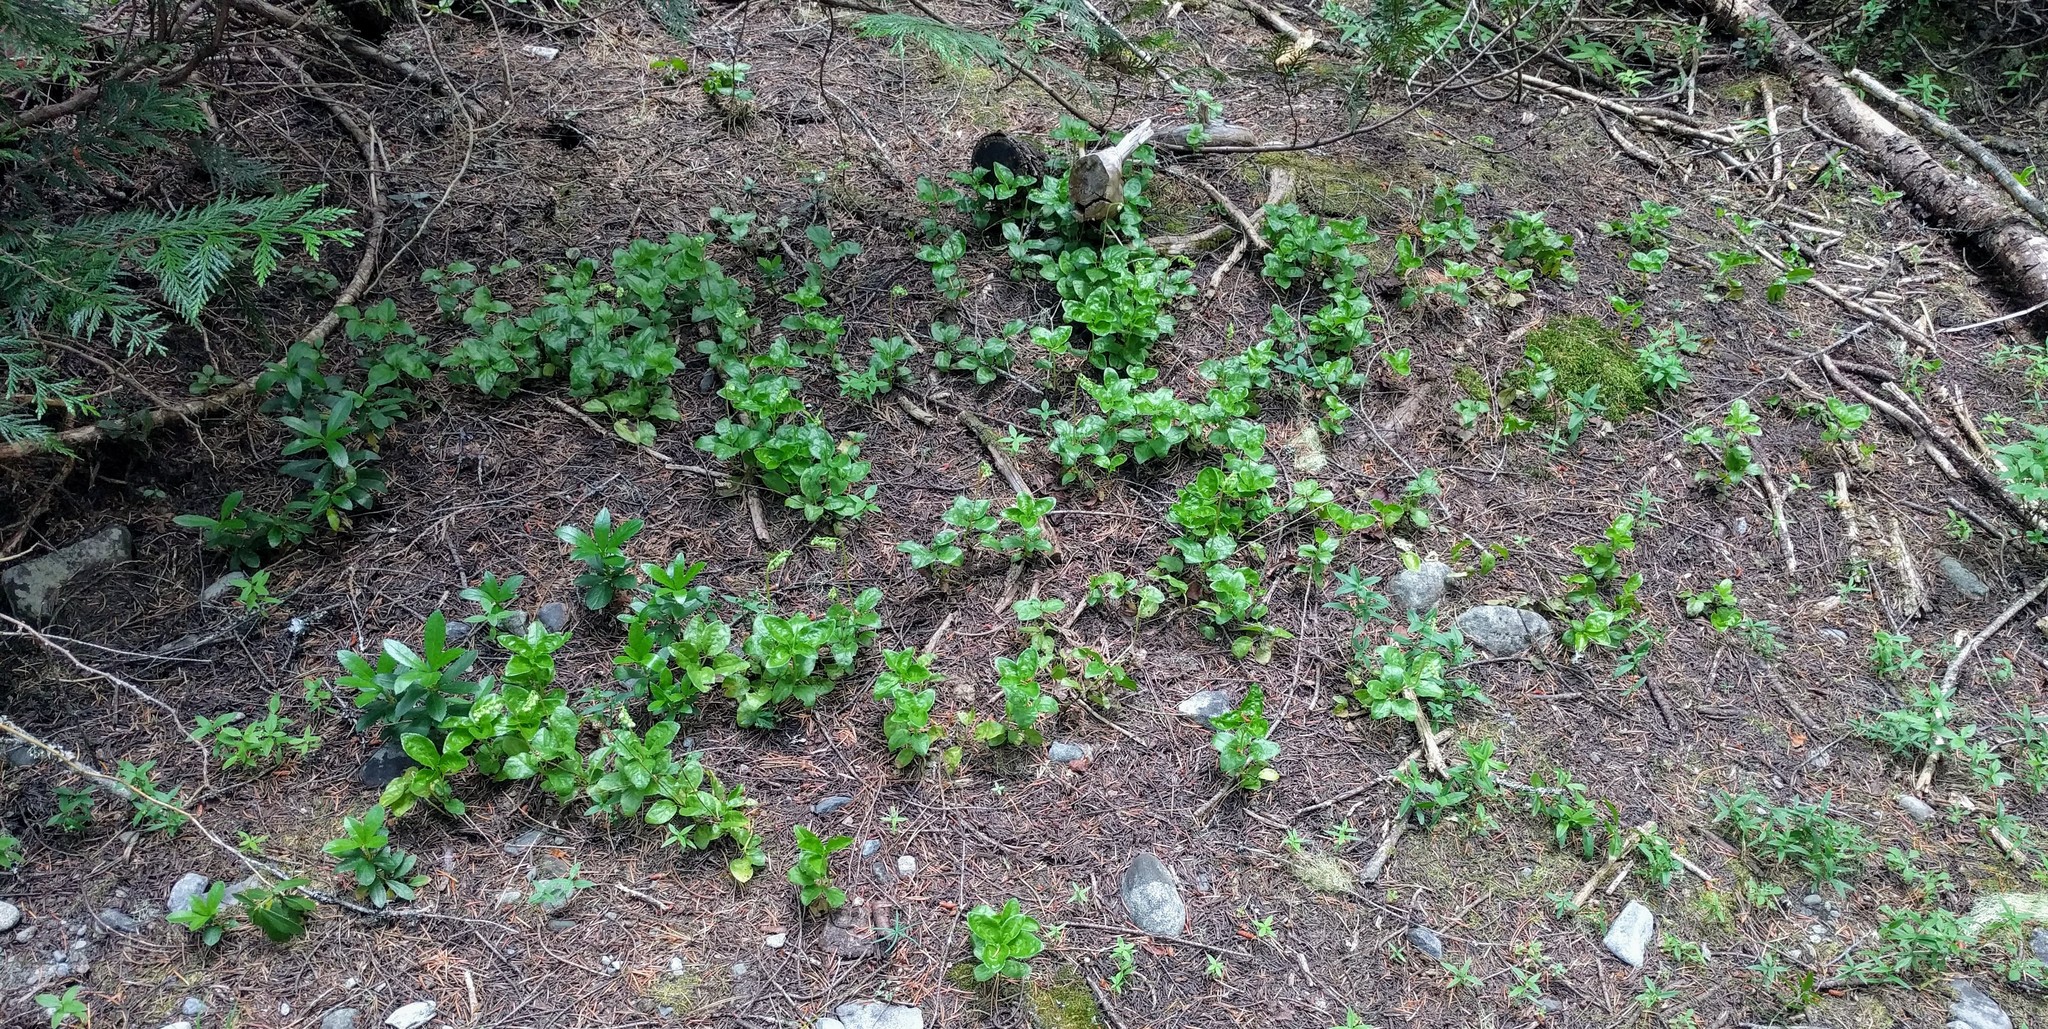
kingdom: Plantae
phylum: Tracheophyta
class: Magnoliopsida
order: Ericales
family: Ericaceae
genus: Orthilia
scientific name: Orthilia secunda
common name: One-sided orthilia
